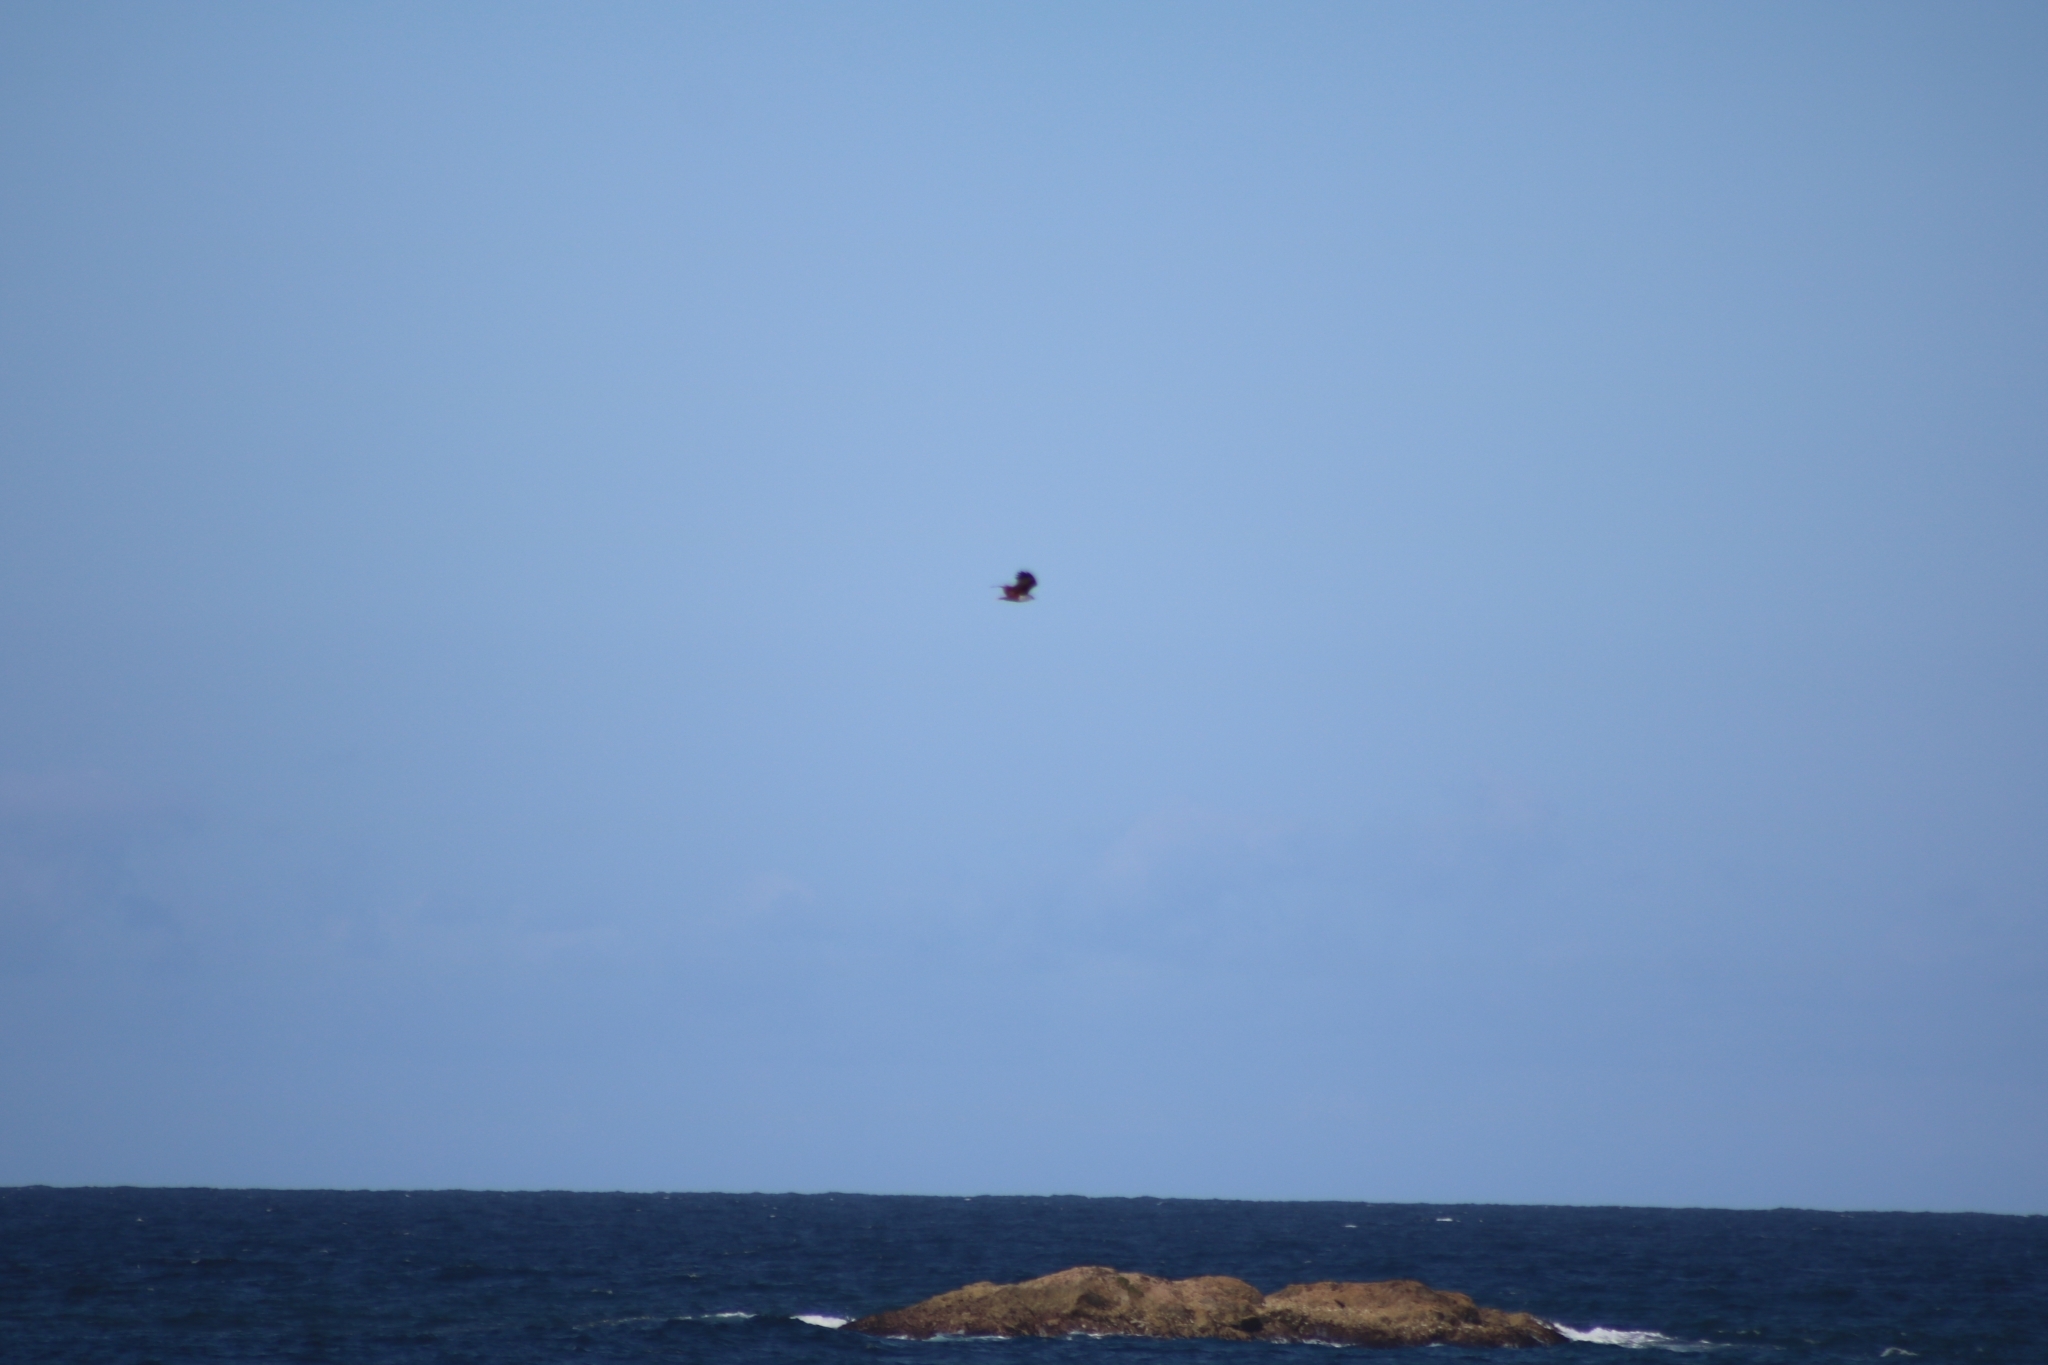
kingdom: Animalia
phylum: Chordata
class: Aves
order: Accipitriformes
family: Accipitridae
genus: Haliastur
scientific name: Haliastur indus
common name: Brahminy kite
